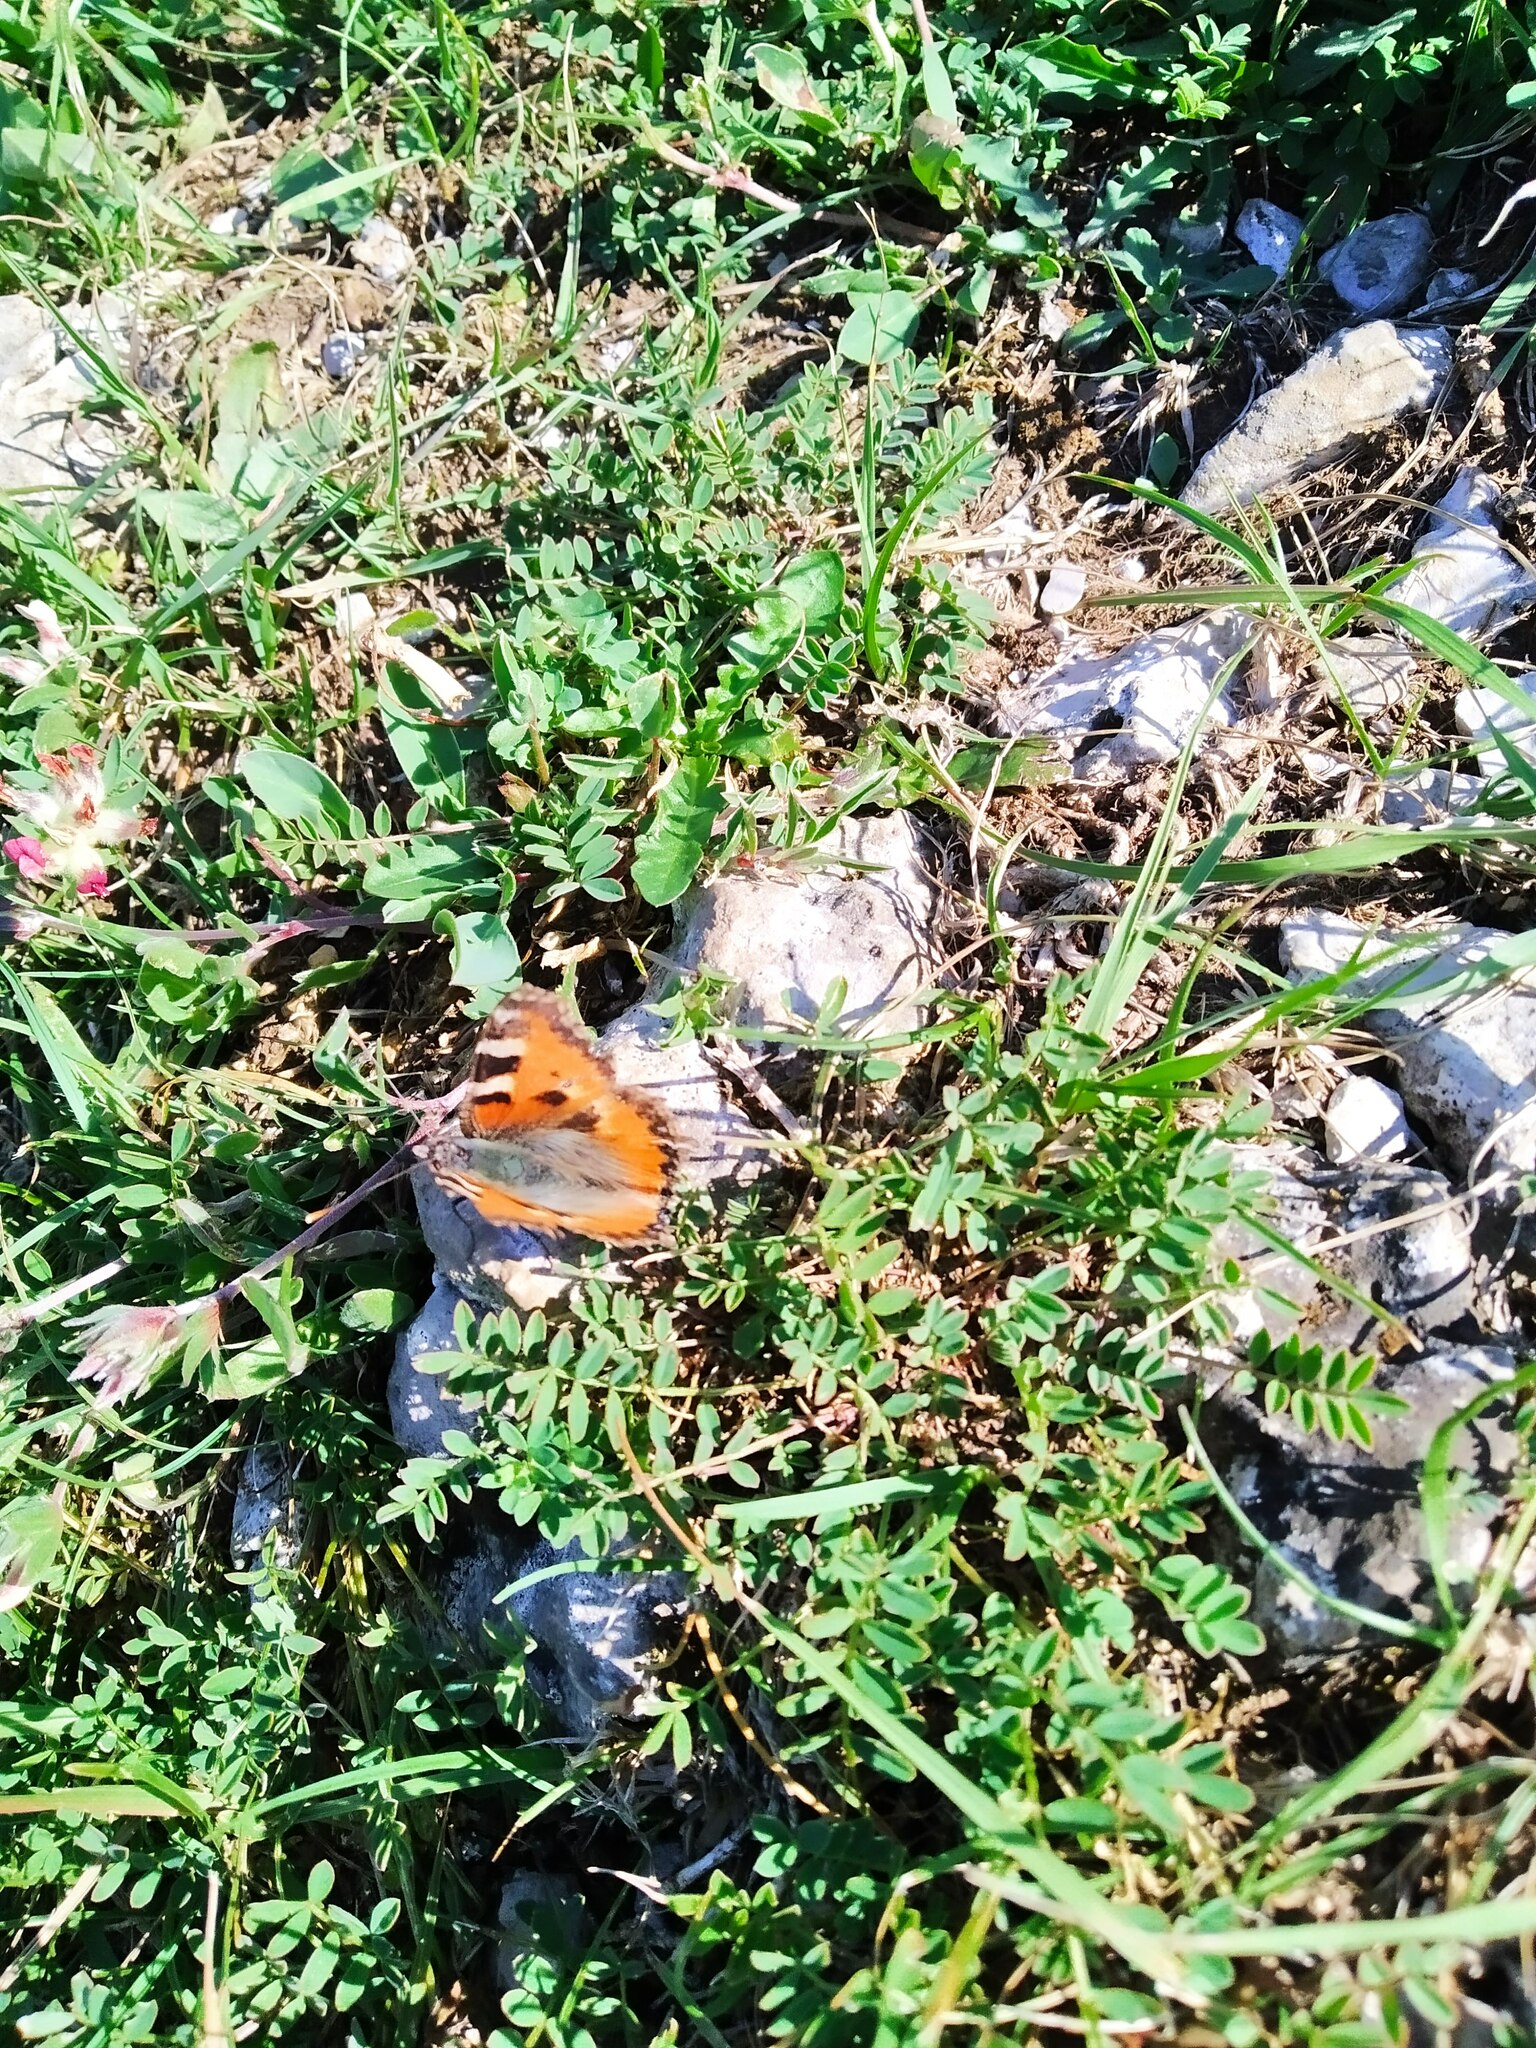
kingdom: Animalia
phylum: Arthropoda
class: Insecta
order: Lepidoptera
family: Nymphalidae
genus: Aglais
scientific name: Aglais urticae
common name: Small tortoiseshell
